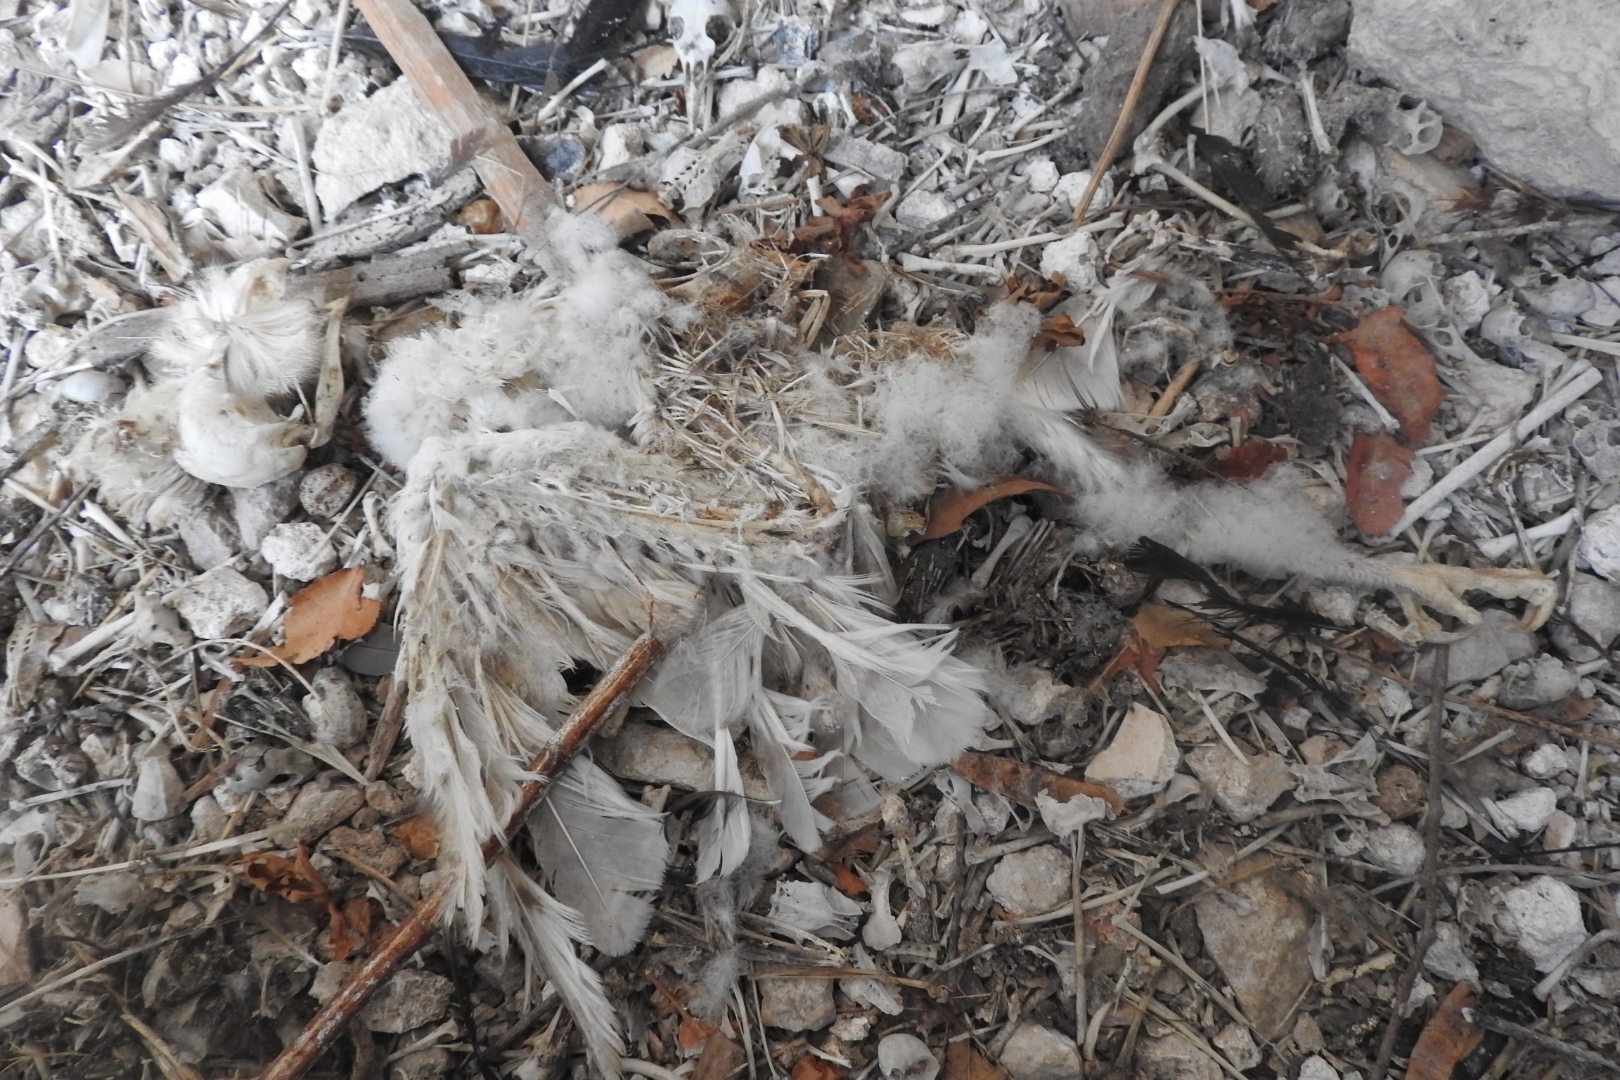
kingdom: Animalia
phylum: Chordata
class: Aves
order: Strigiformes
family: Tytonidae
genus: Tyto
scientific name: Tyto alba
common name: Barn owl
